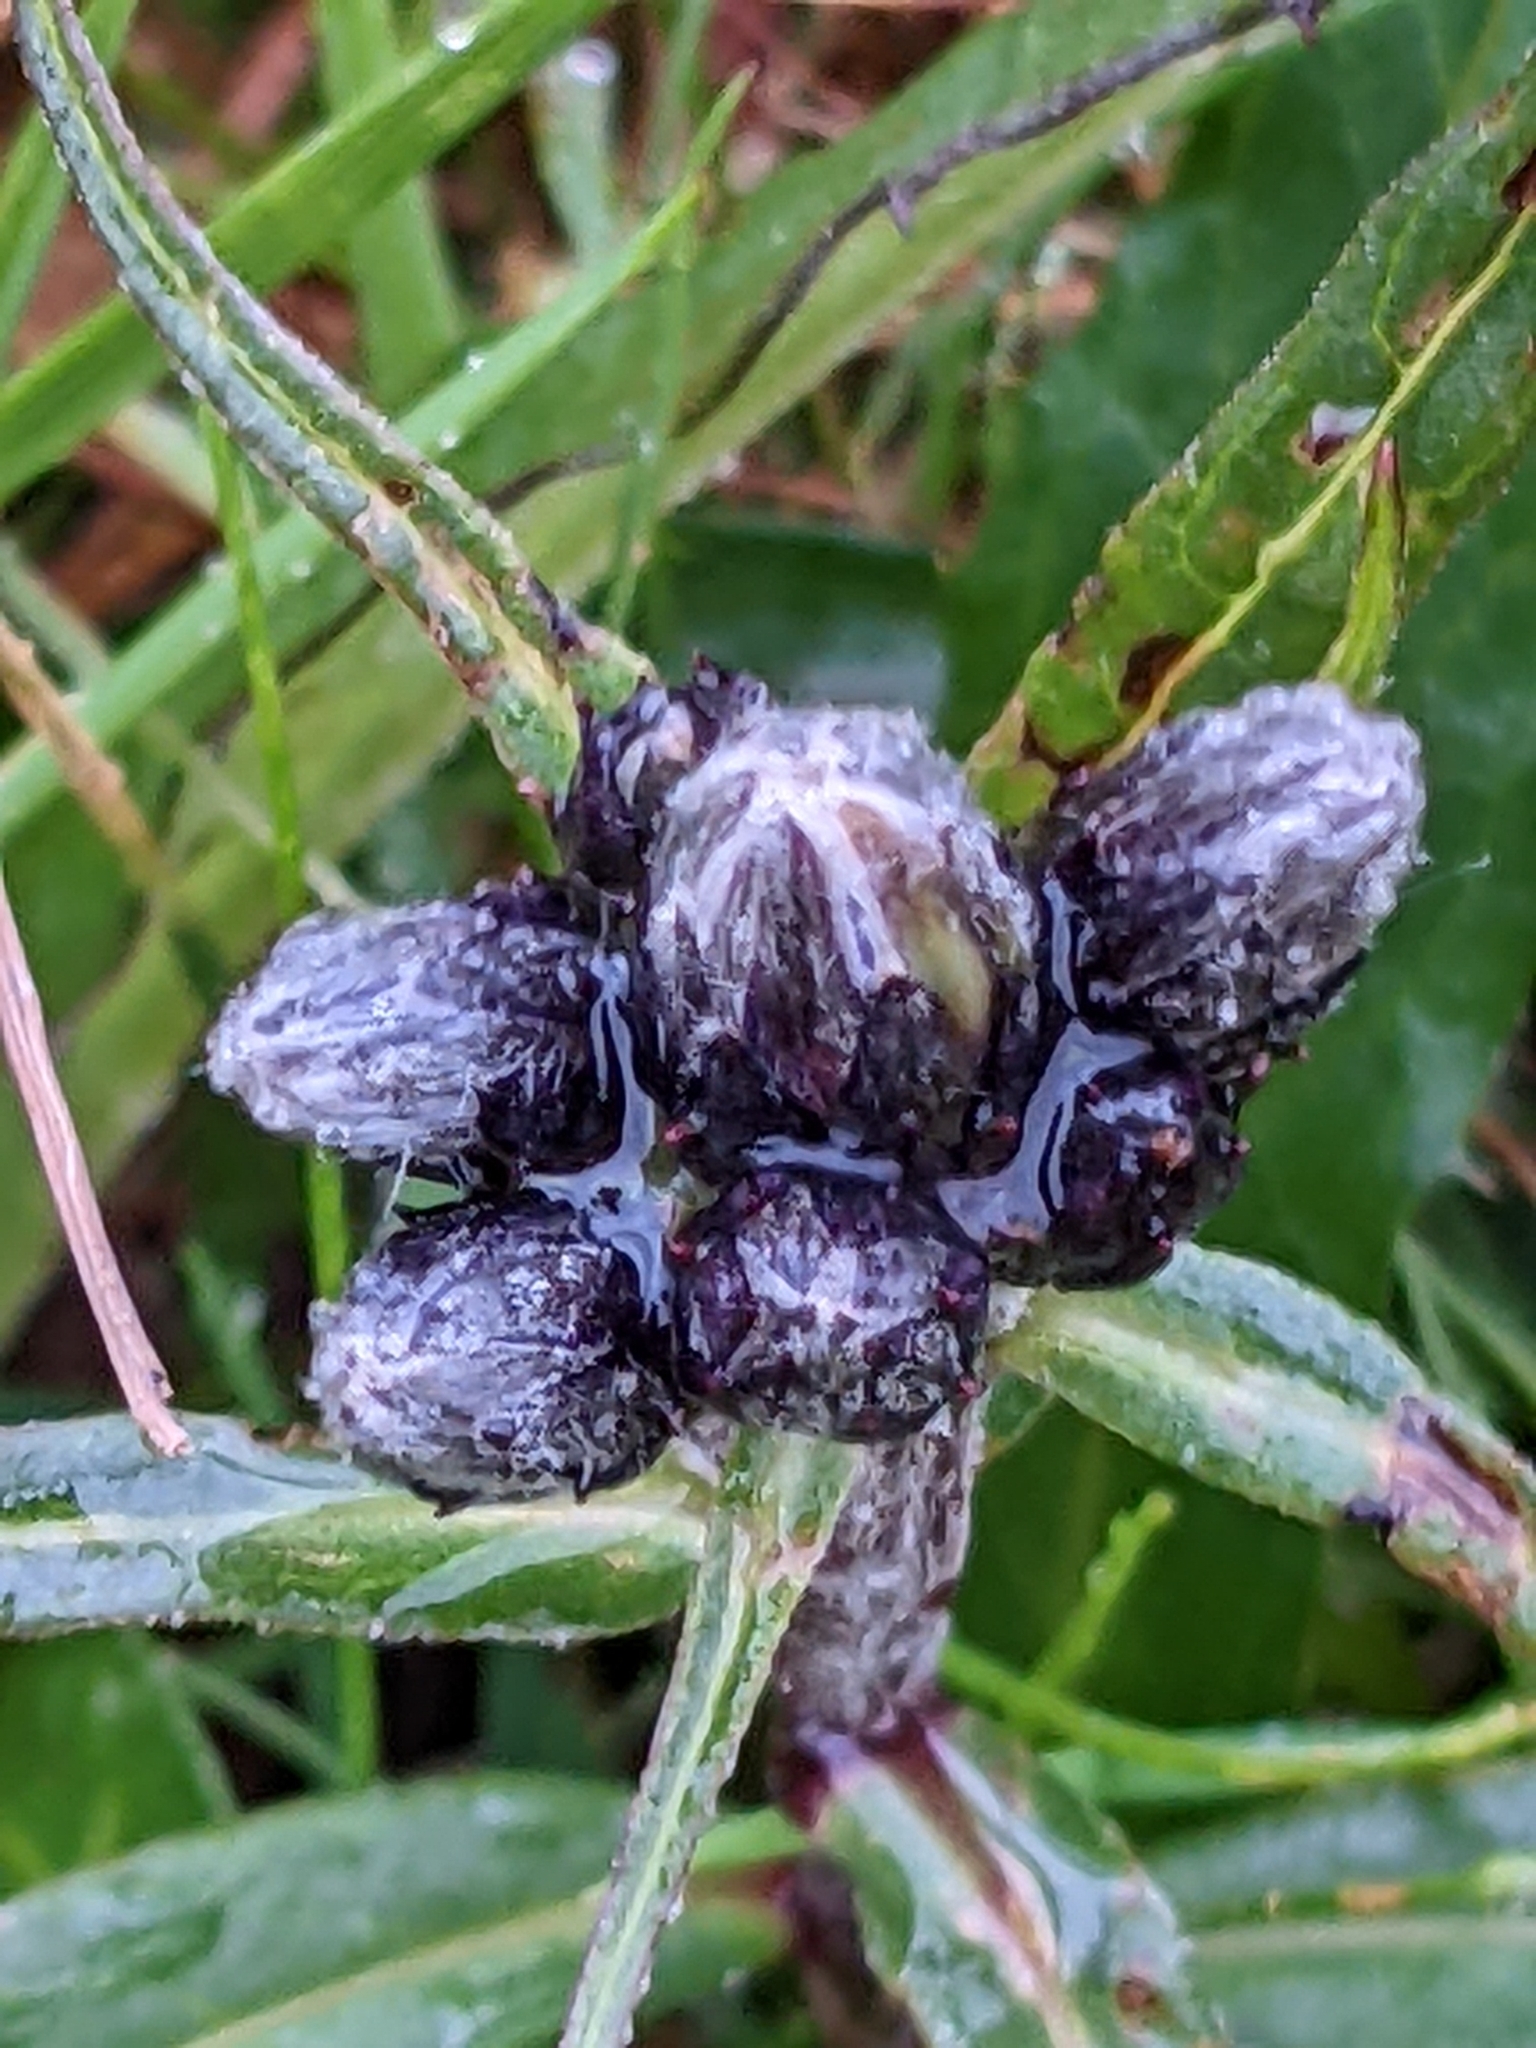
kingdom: Plantae
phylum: Tracheophyta
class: Magnoliopsida
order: Asterales
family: Asteraceae
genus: Saussurea
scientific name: Saussurea alpina
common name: Alpine saw-wort
